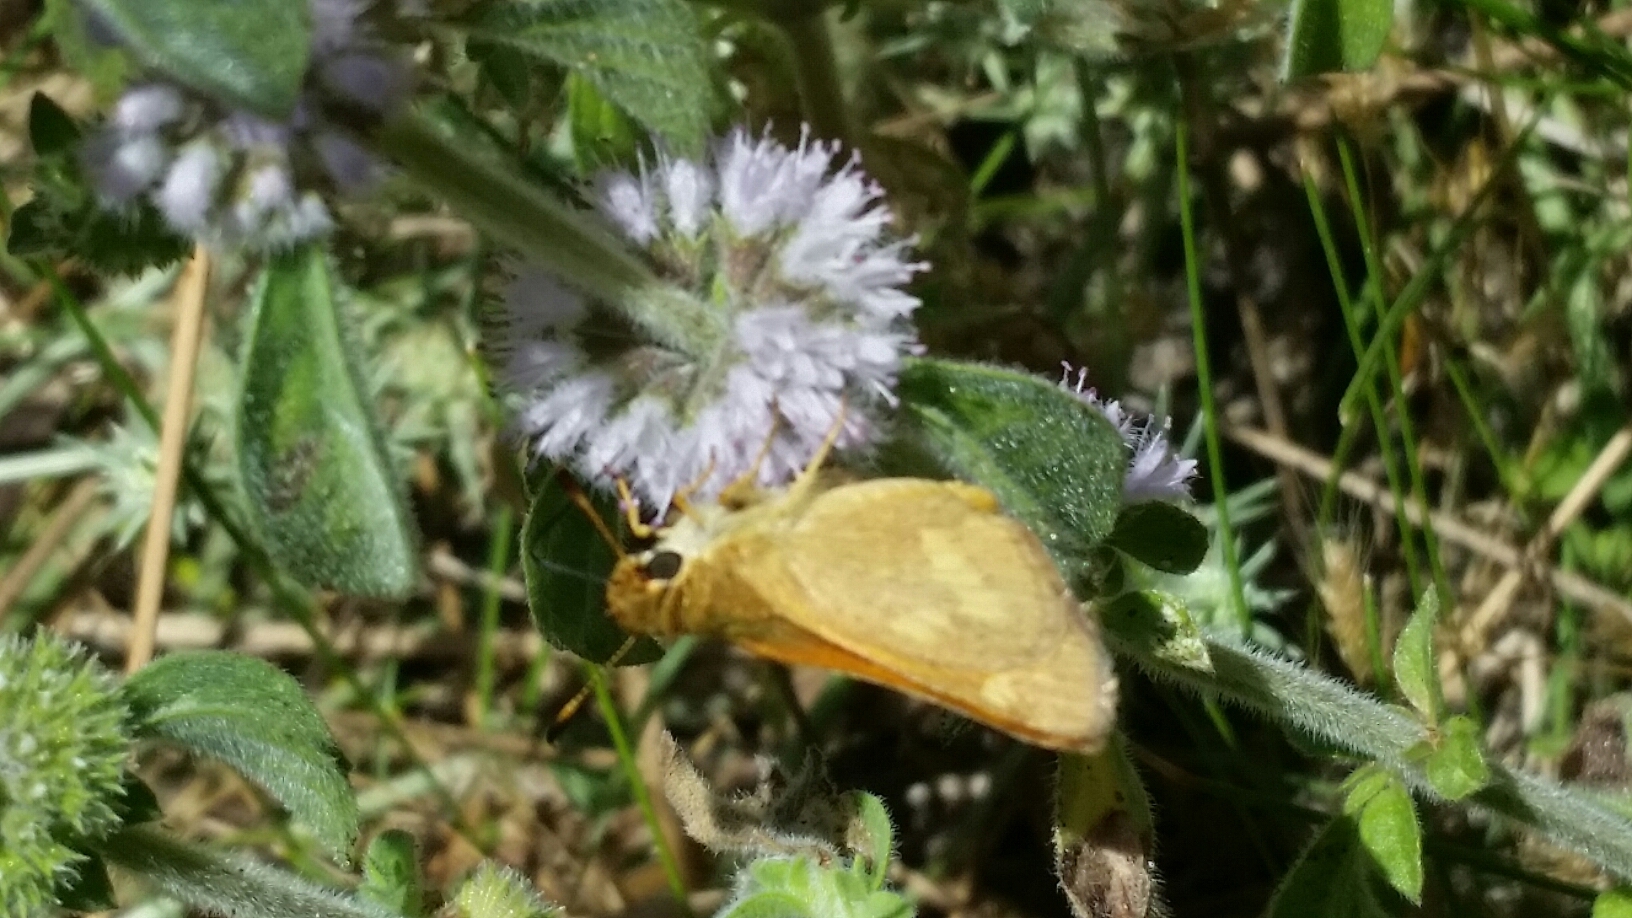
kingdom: Animalia
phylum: Arthropoda
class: Insecta
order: Lepidoptera
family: Hesperiidae
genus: Ochlodes
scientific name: Ochlodes sylvanoides
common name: Woodland skipper
